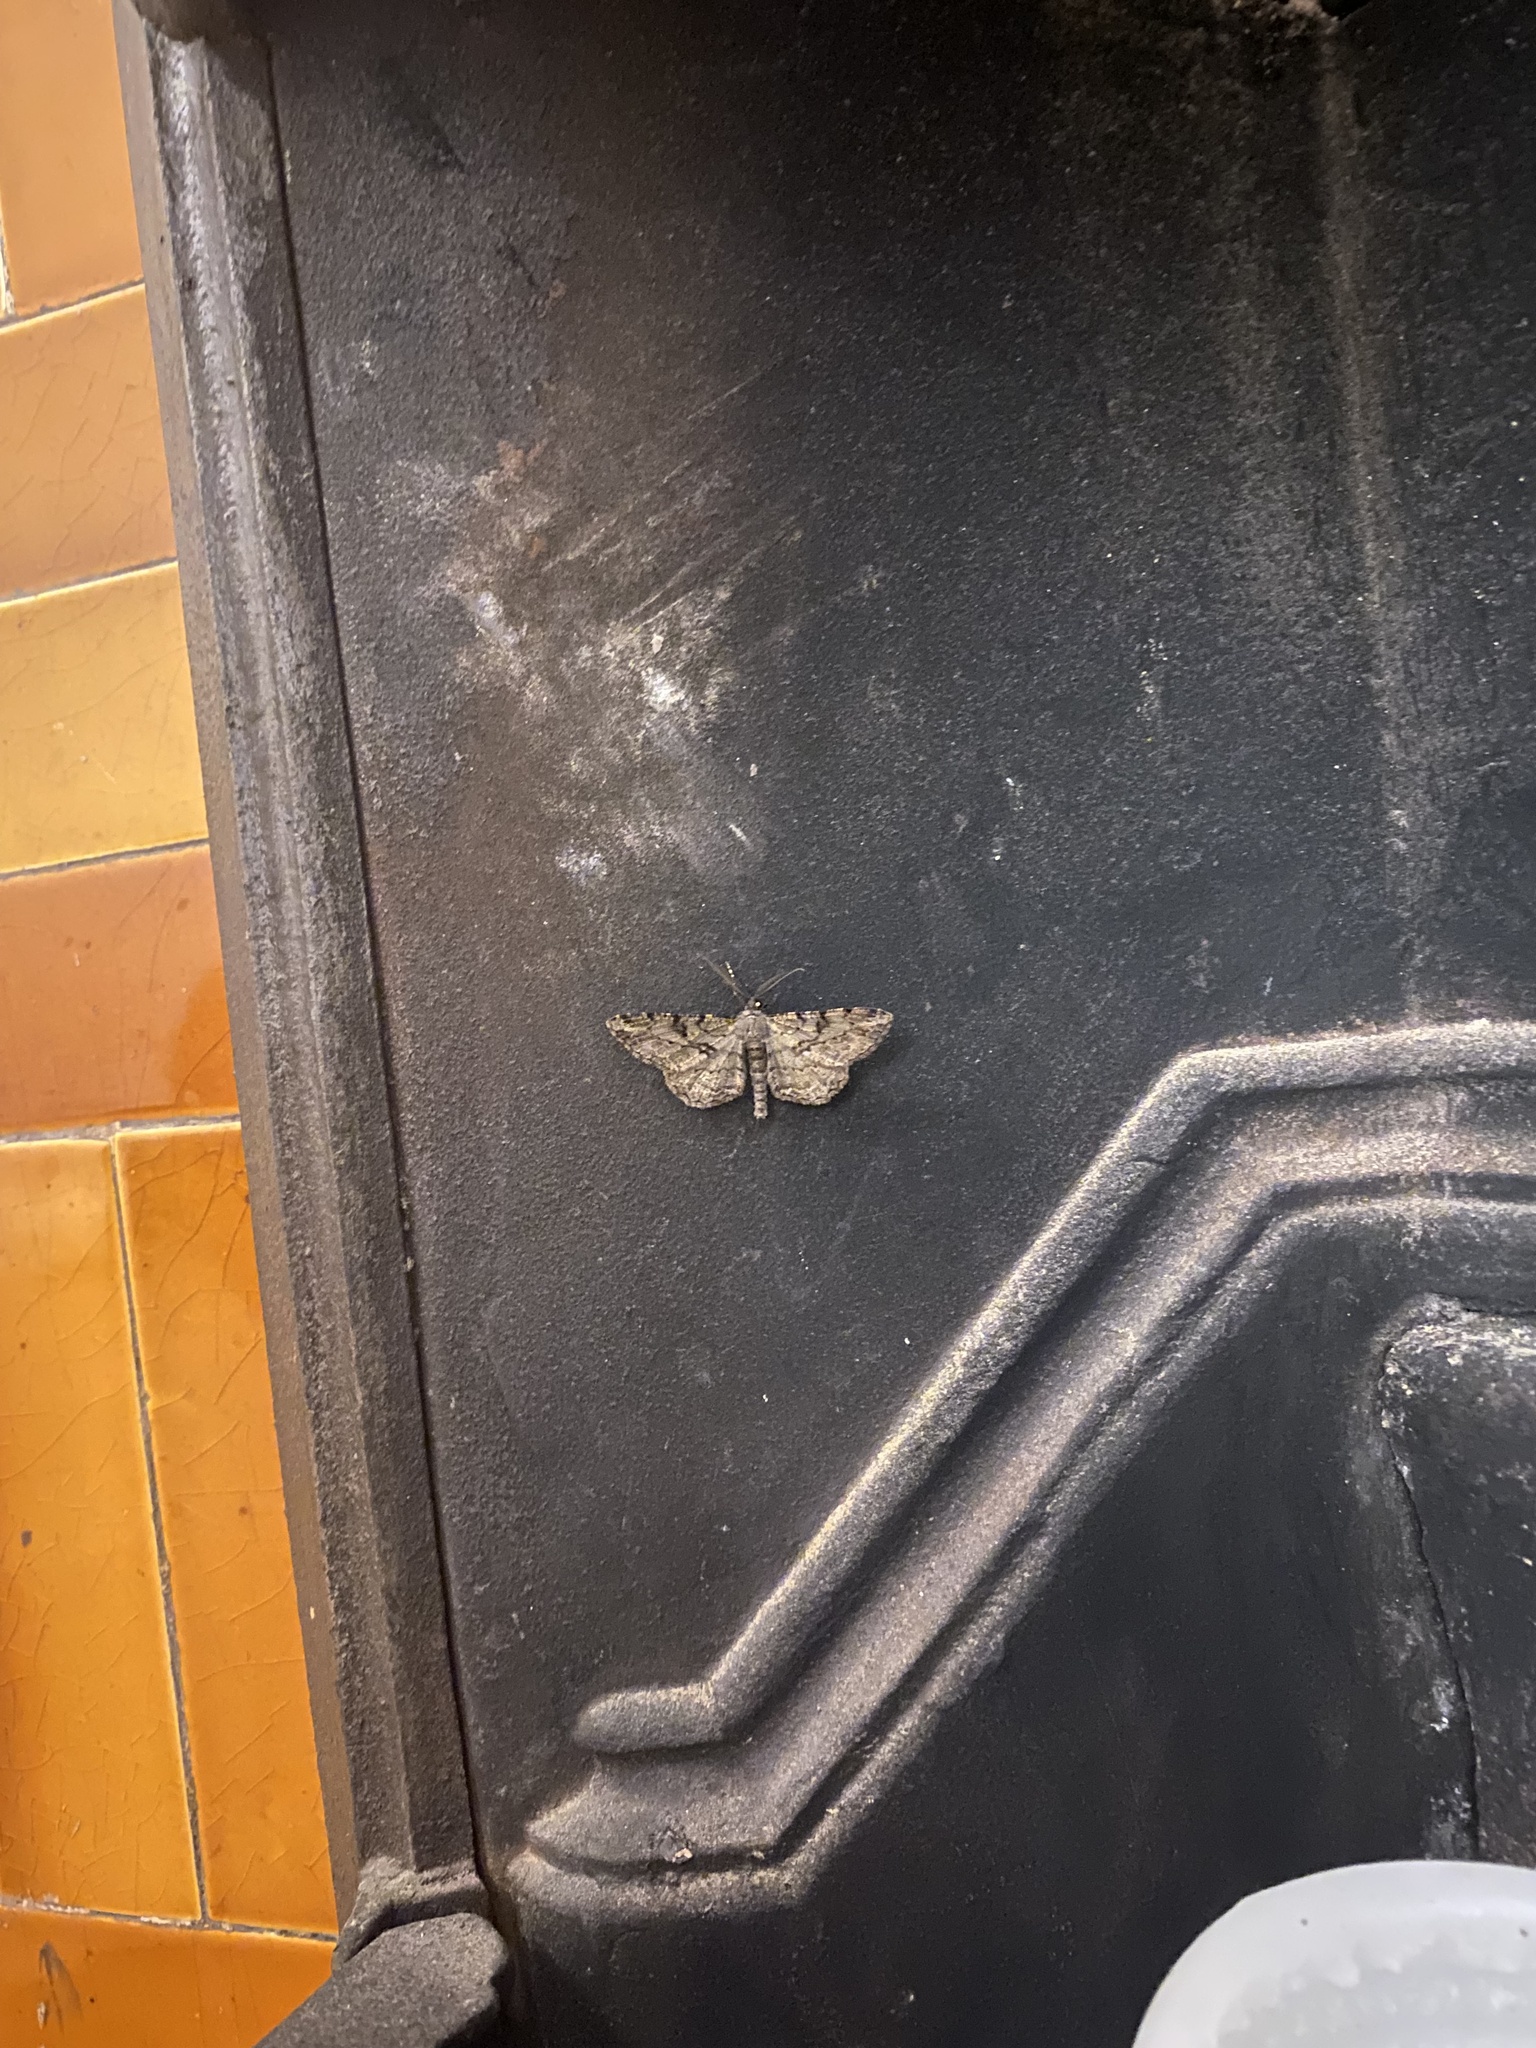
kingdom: Animalia
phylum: Arthropoda
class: Insecta
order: Lepidoptera
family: Geometridae
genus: Peribatodes
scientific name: Peribatodes rhomboidaria
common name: Willow beauty
